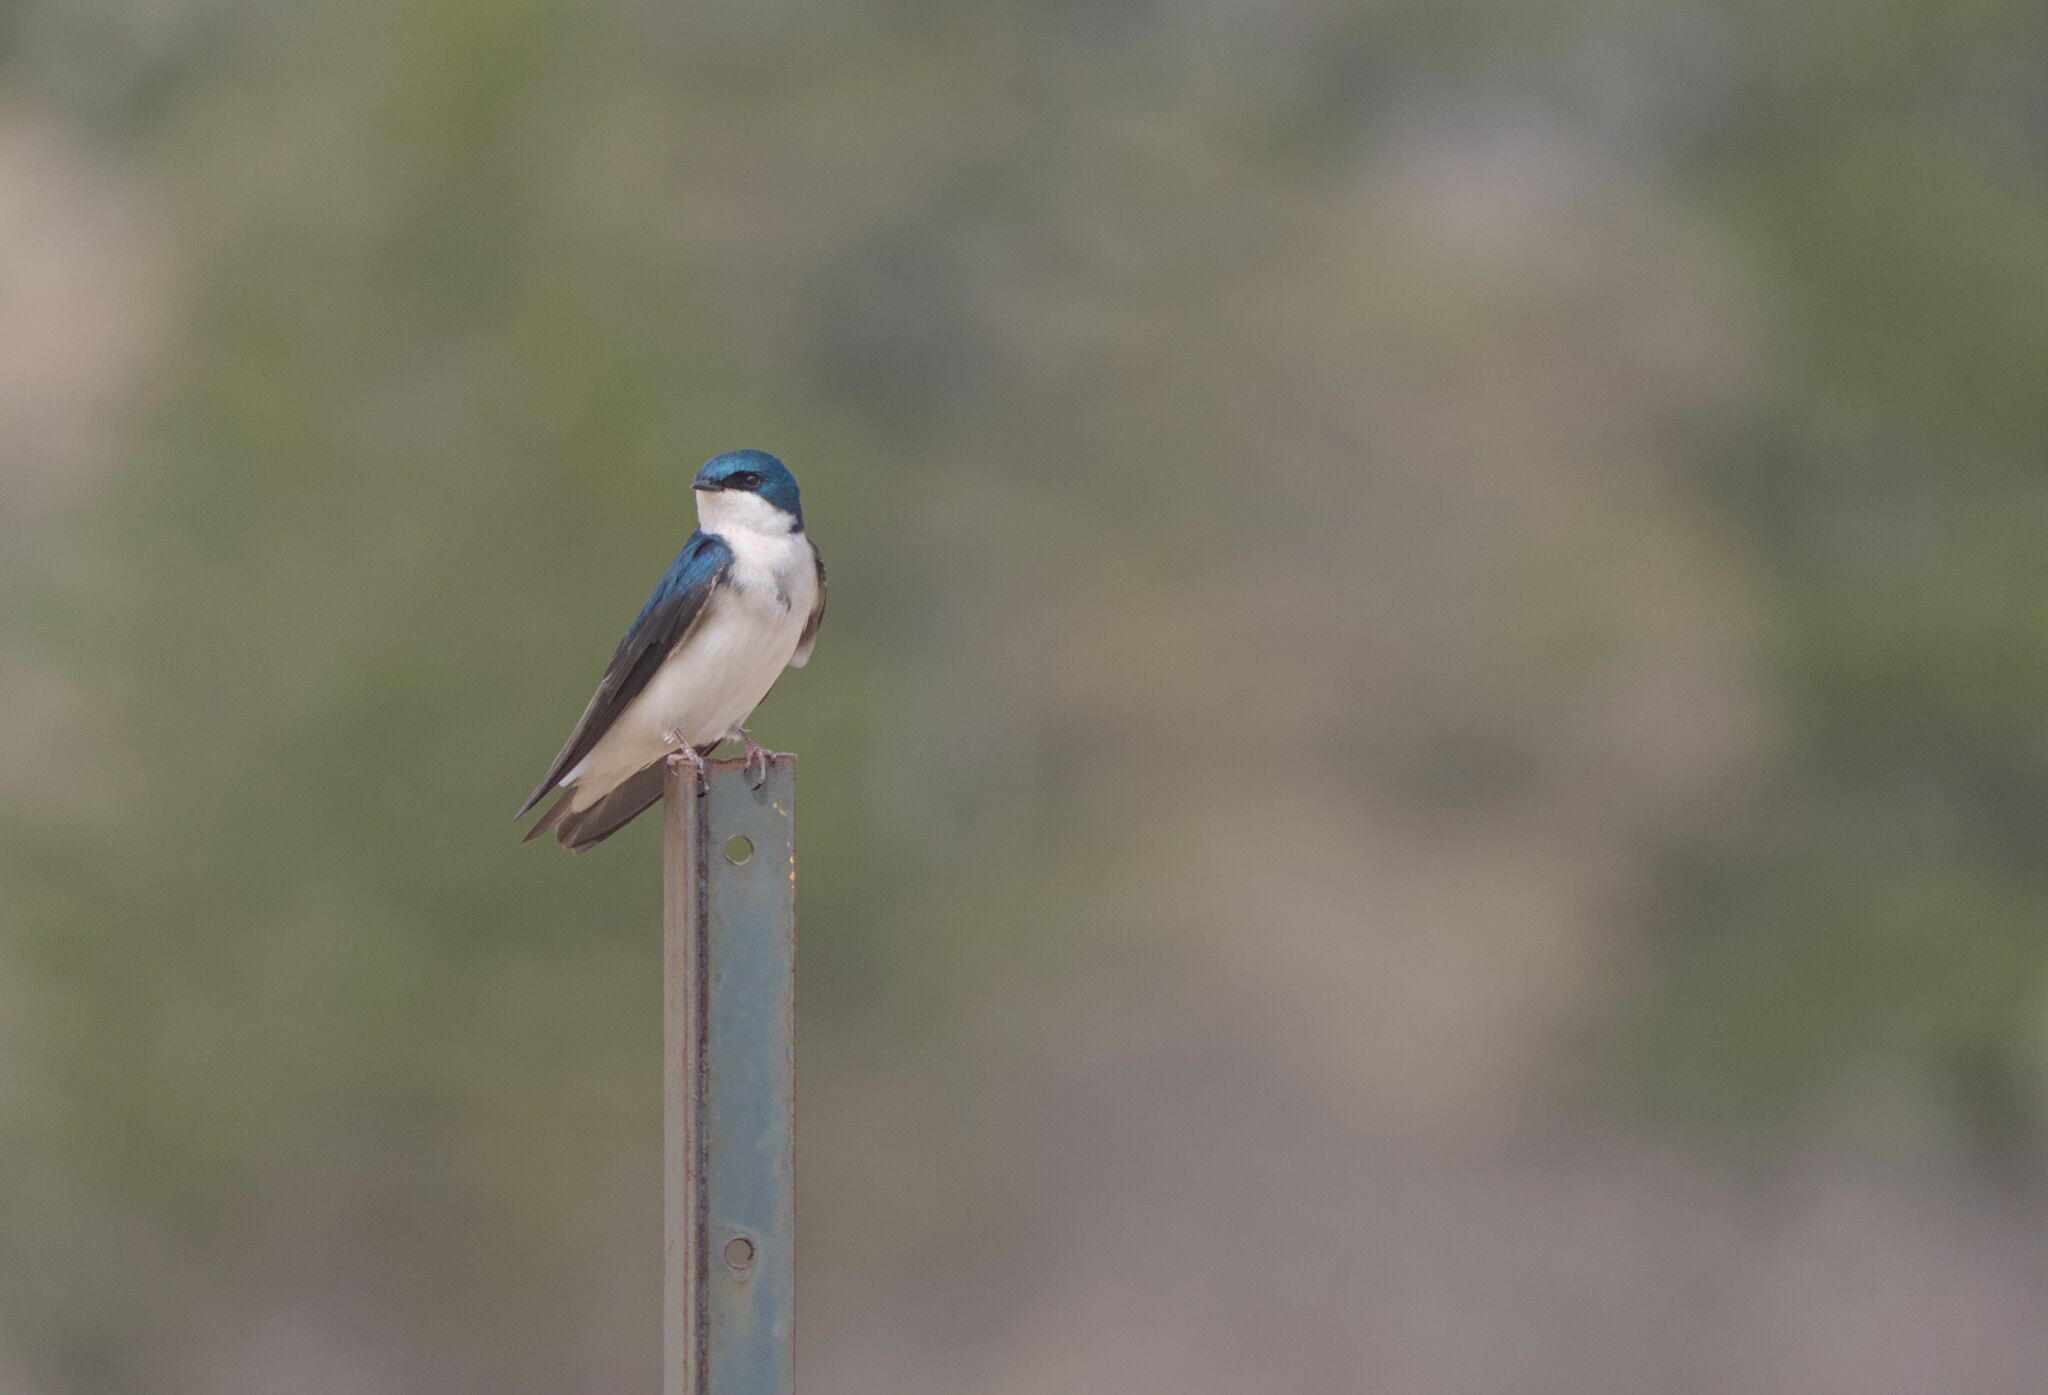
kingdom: Animalia
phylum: Chordata
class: Aves
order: Passeriformes
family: Hirundinidae
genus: Tachycineta
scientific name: Tachycineta bicolor
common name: Tree swallow
